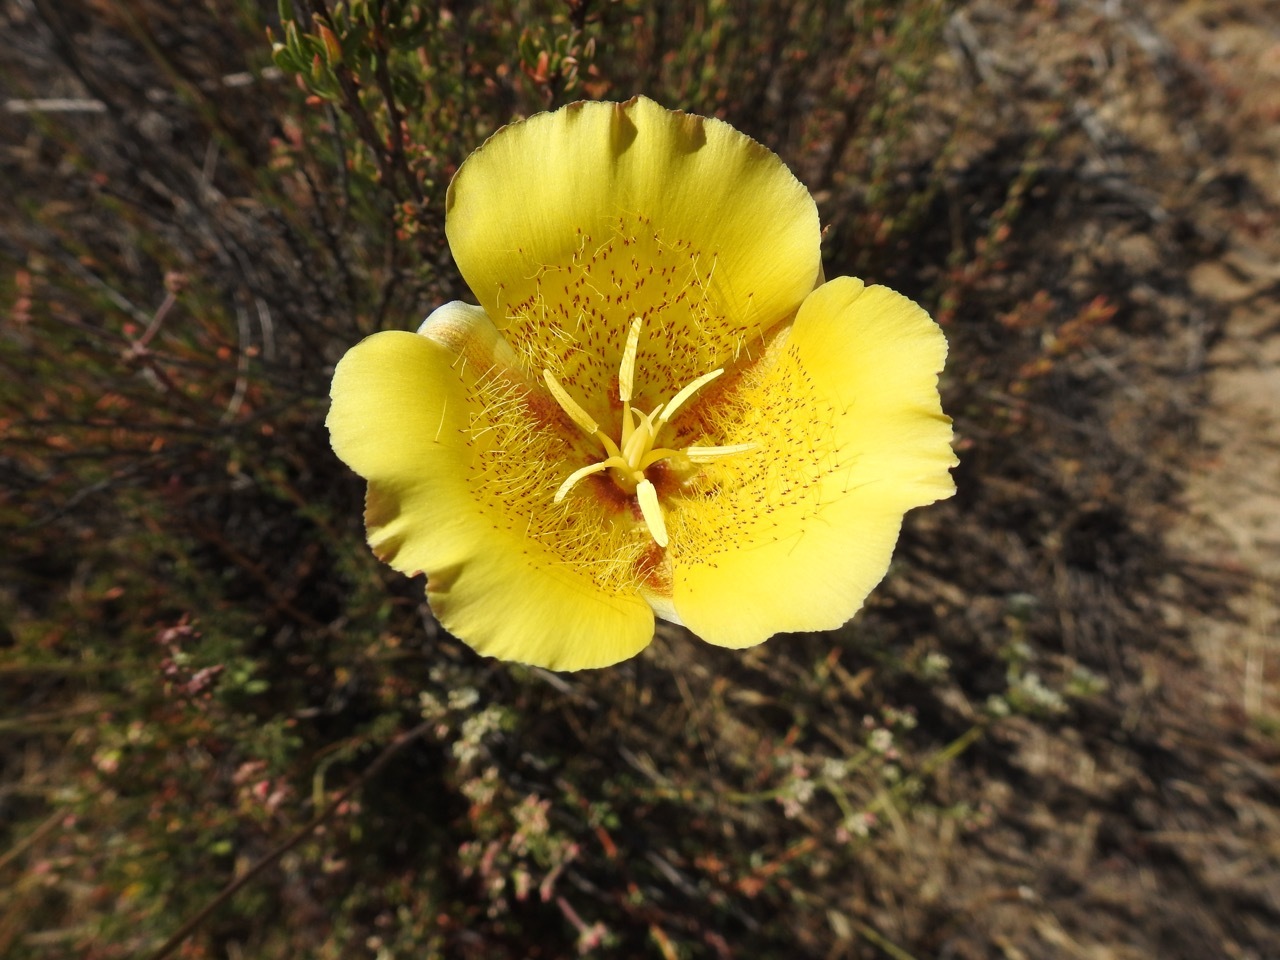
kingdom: Plantae
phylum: Tracheophyta
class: Liliopsida
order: Liliales
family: Liliaceae
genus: Calochortus
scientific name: Calochortus weedii
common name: Weed's mariposa-lily
